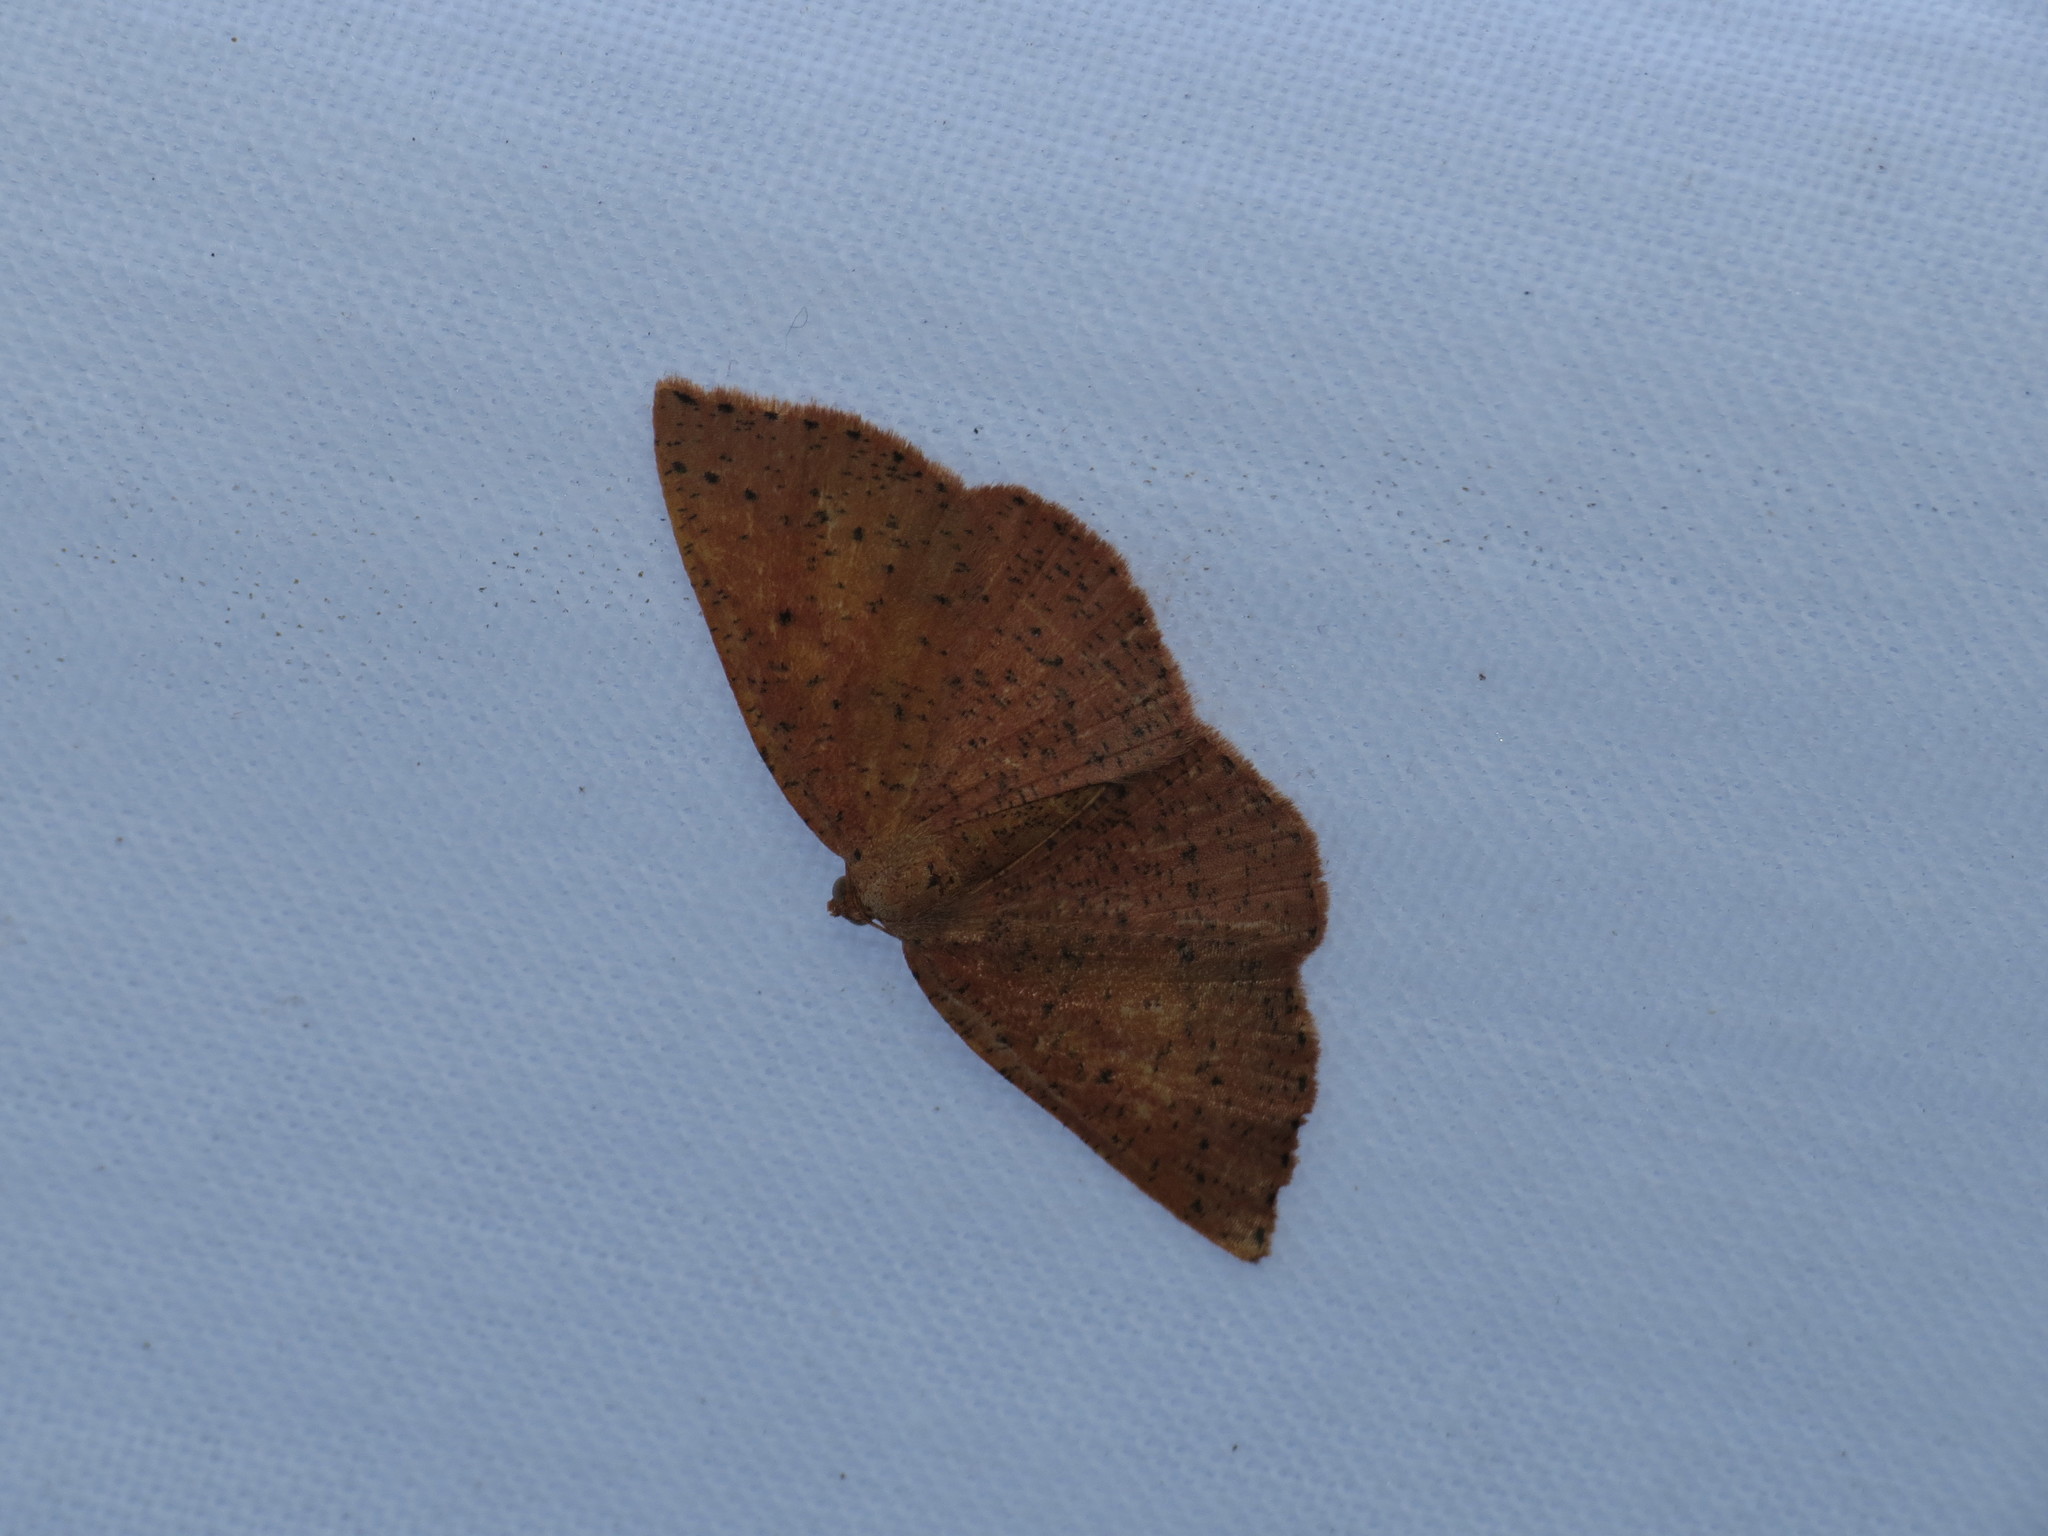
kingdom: Animalia
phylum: Arthropoda
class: Insecta
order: Lepidoptera
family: Geometridae
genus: Episemasia
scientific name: Episemasia solitaria
